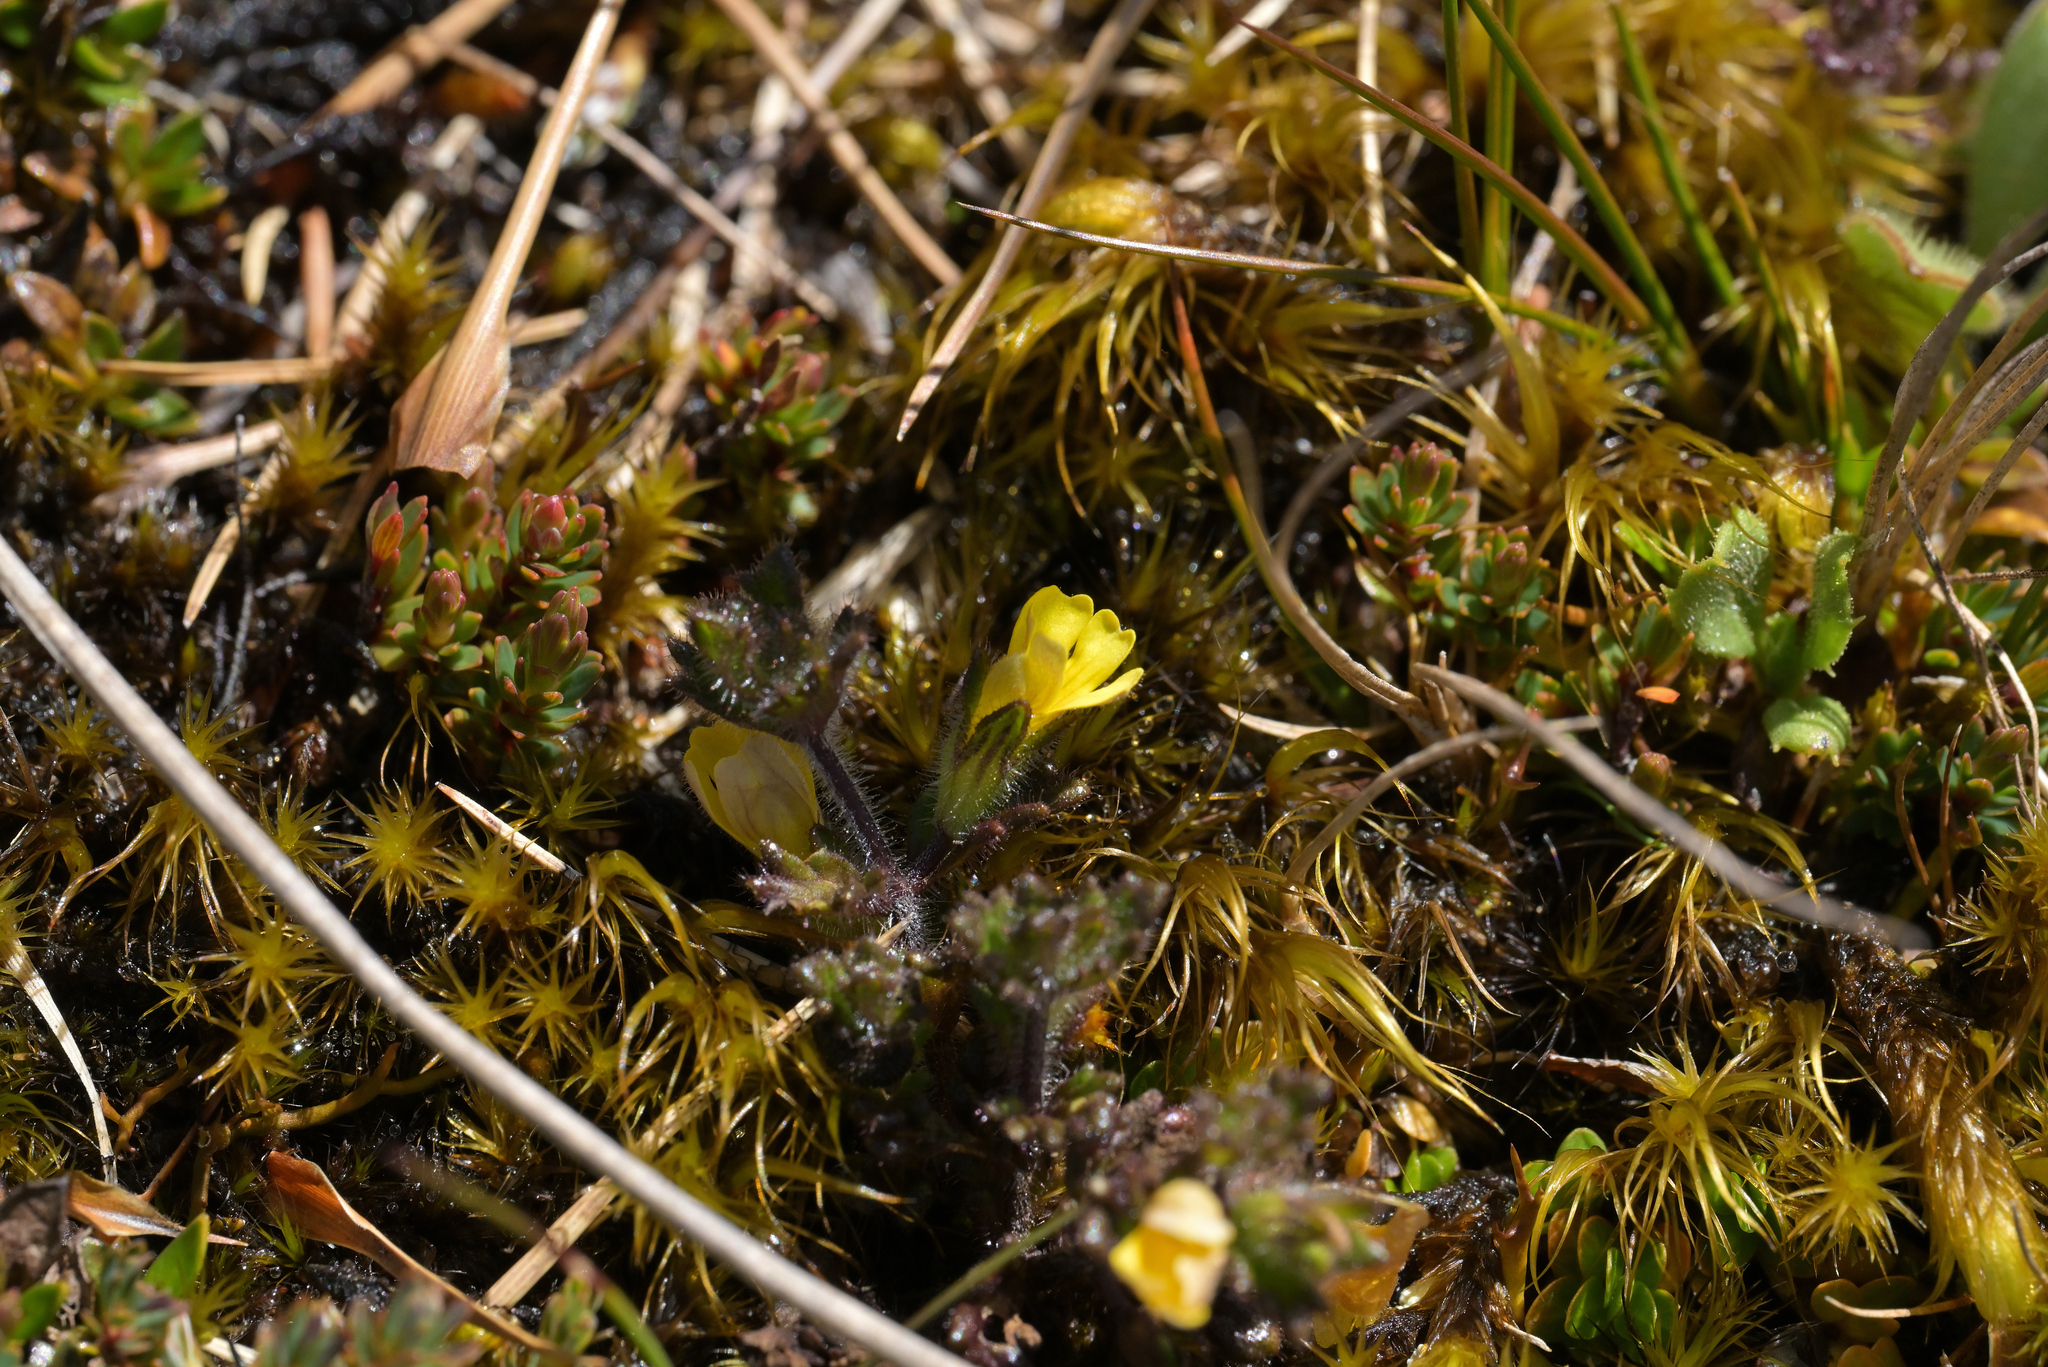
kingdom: Plantae
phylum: Tracheophyta
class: Magnoliopsida
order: Lamiales
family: Orobanchaceae
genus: Euphrasia
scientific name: Euphrasia cockayneana
